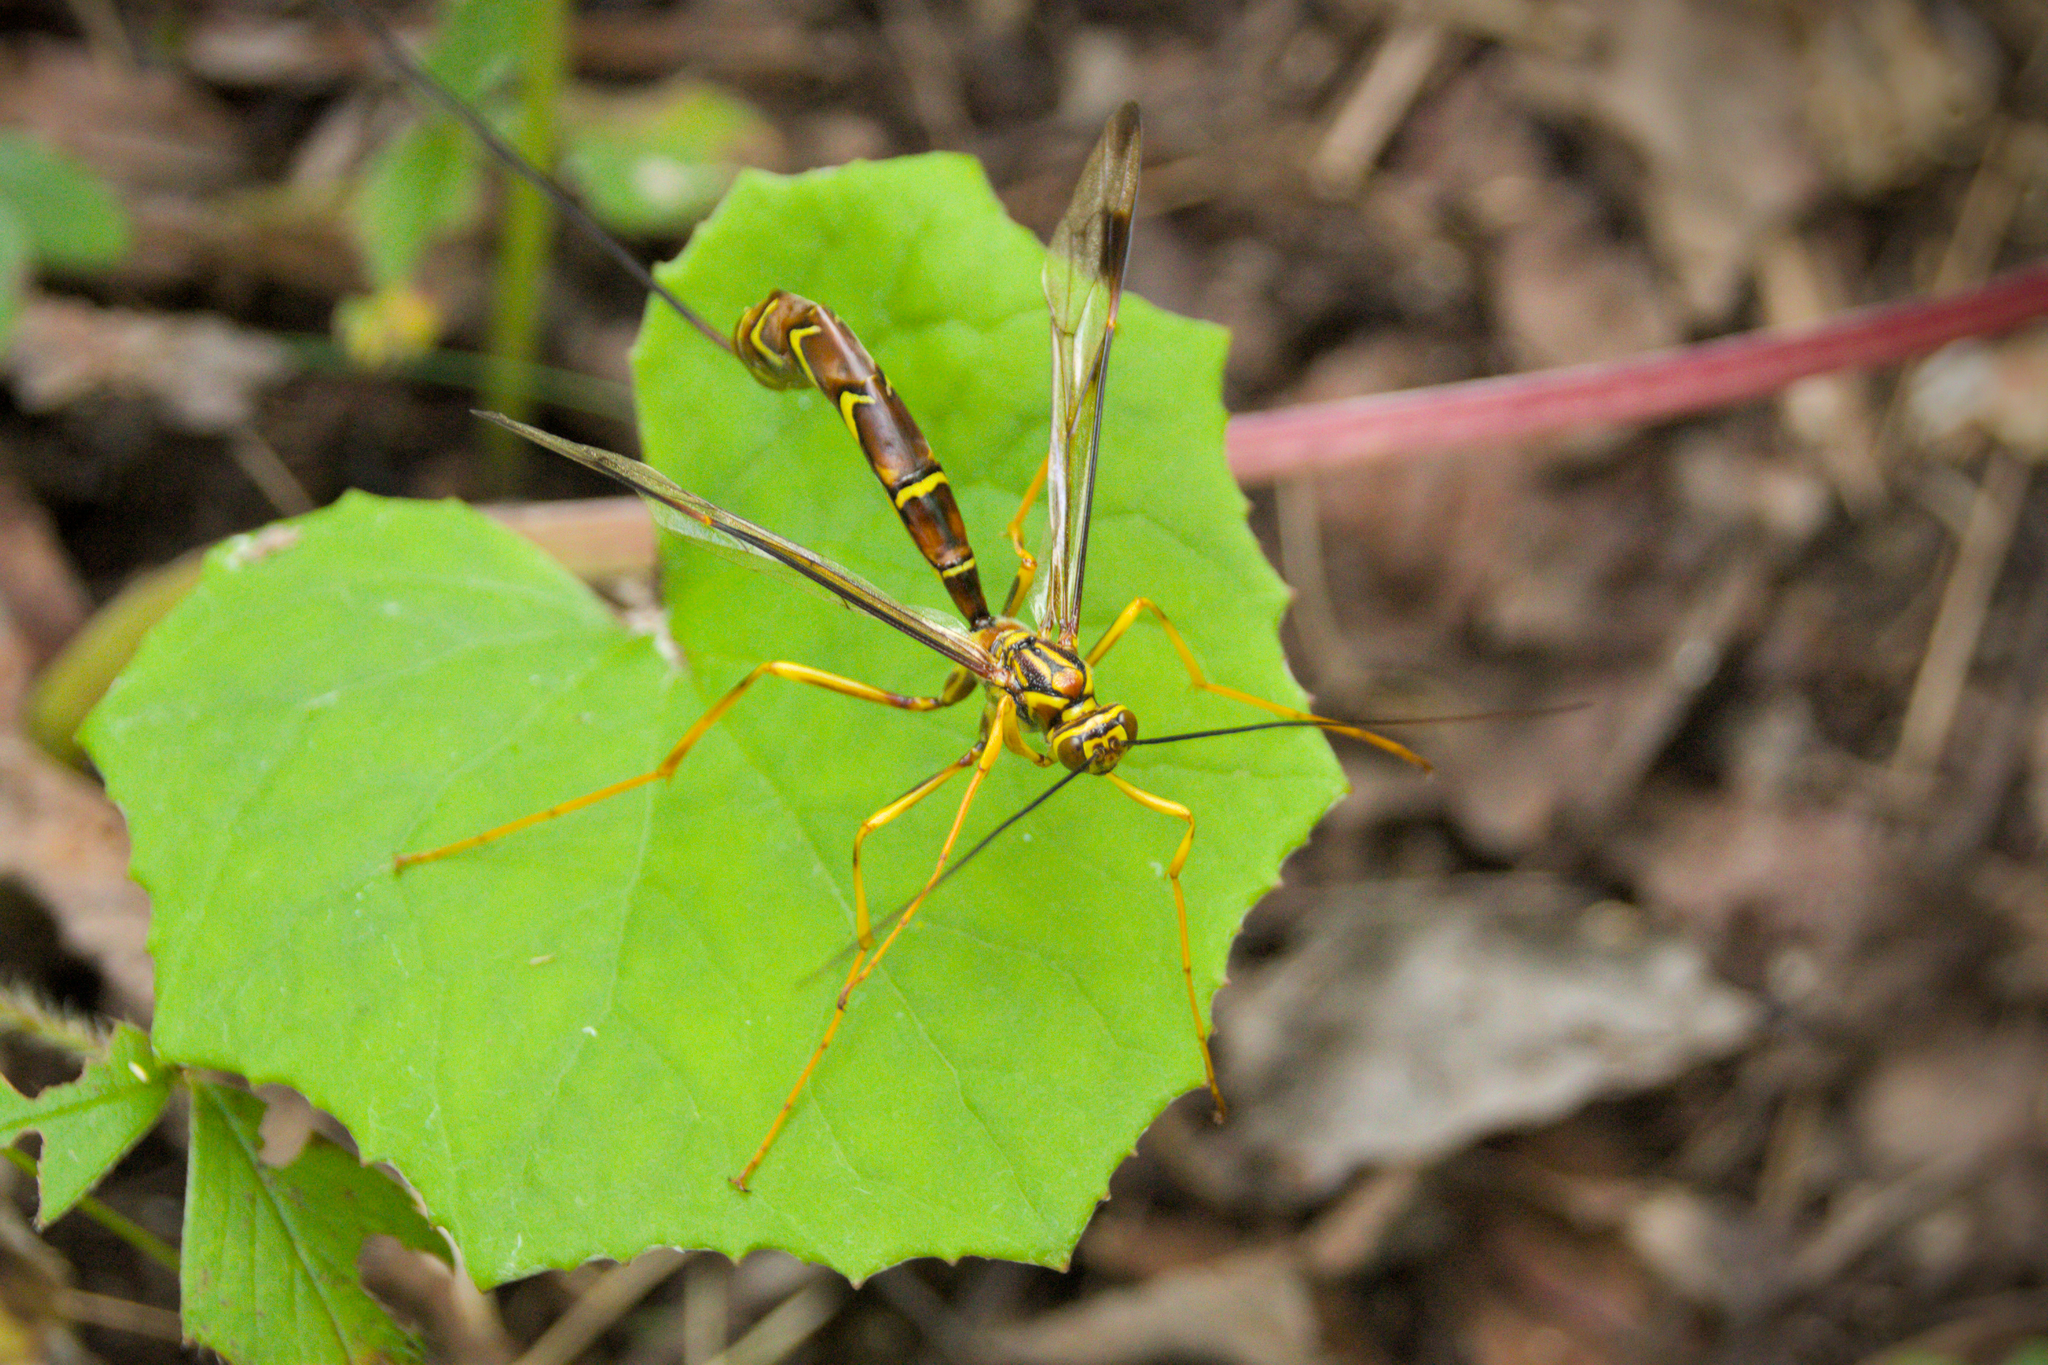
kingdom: Animalia
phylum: Arthropoda
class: Insecta
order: Hymenoptera
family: Ichneumonidae
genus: Megarhyssa
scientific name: Megarhyssa macrura
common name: Long-tailed giant ichneumonid wasp
